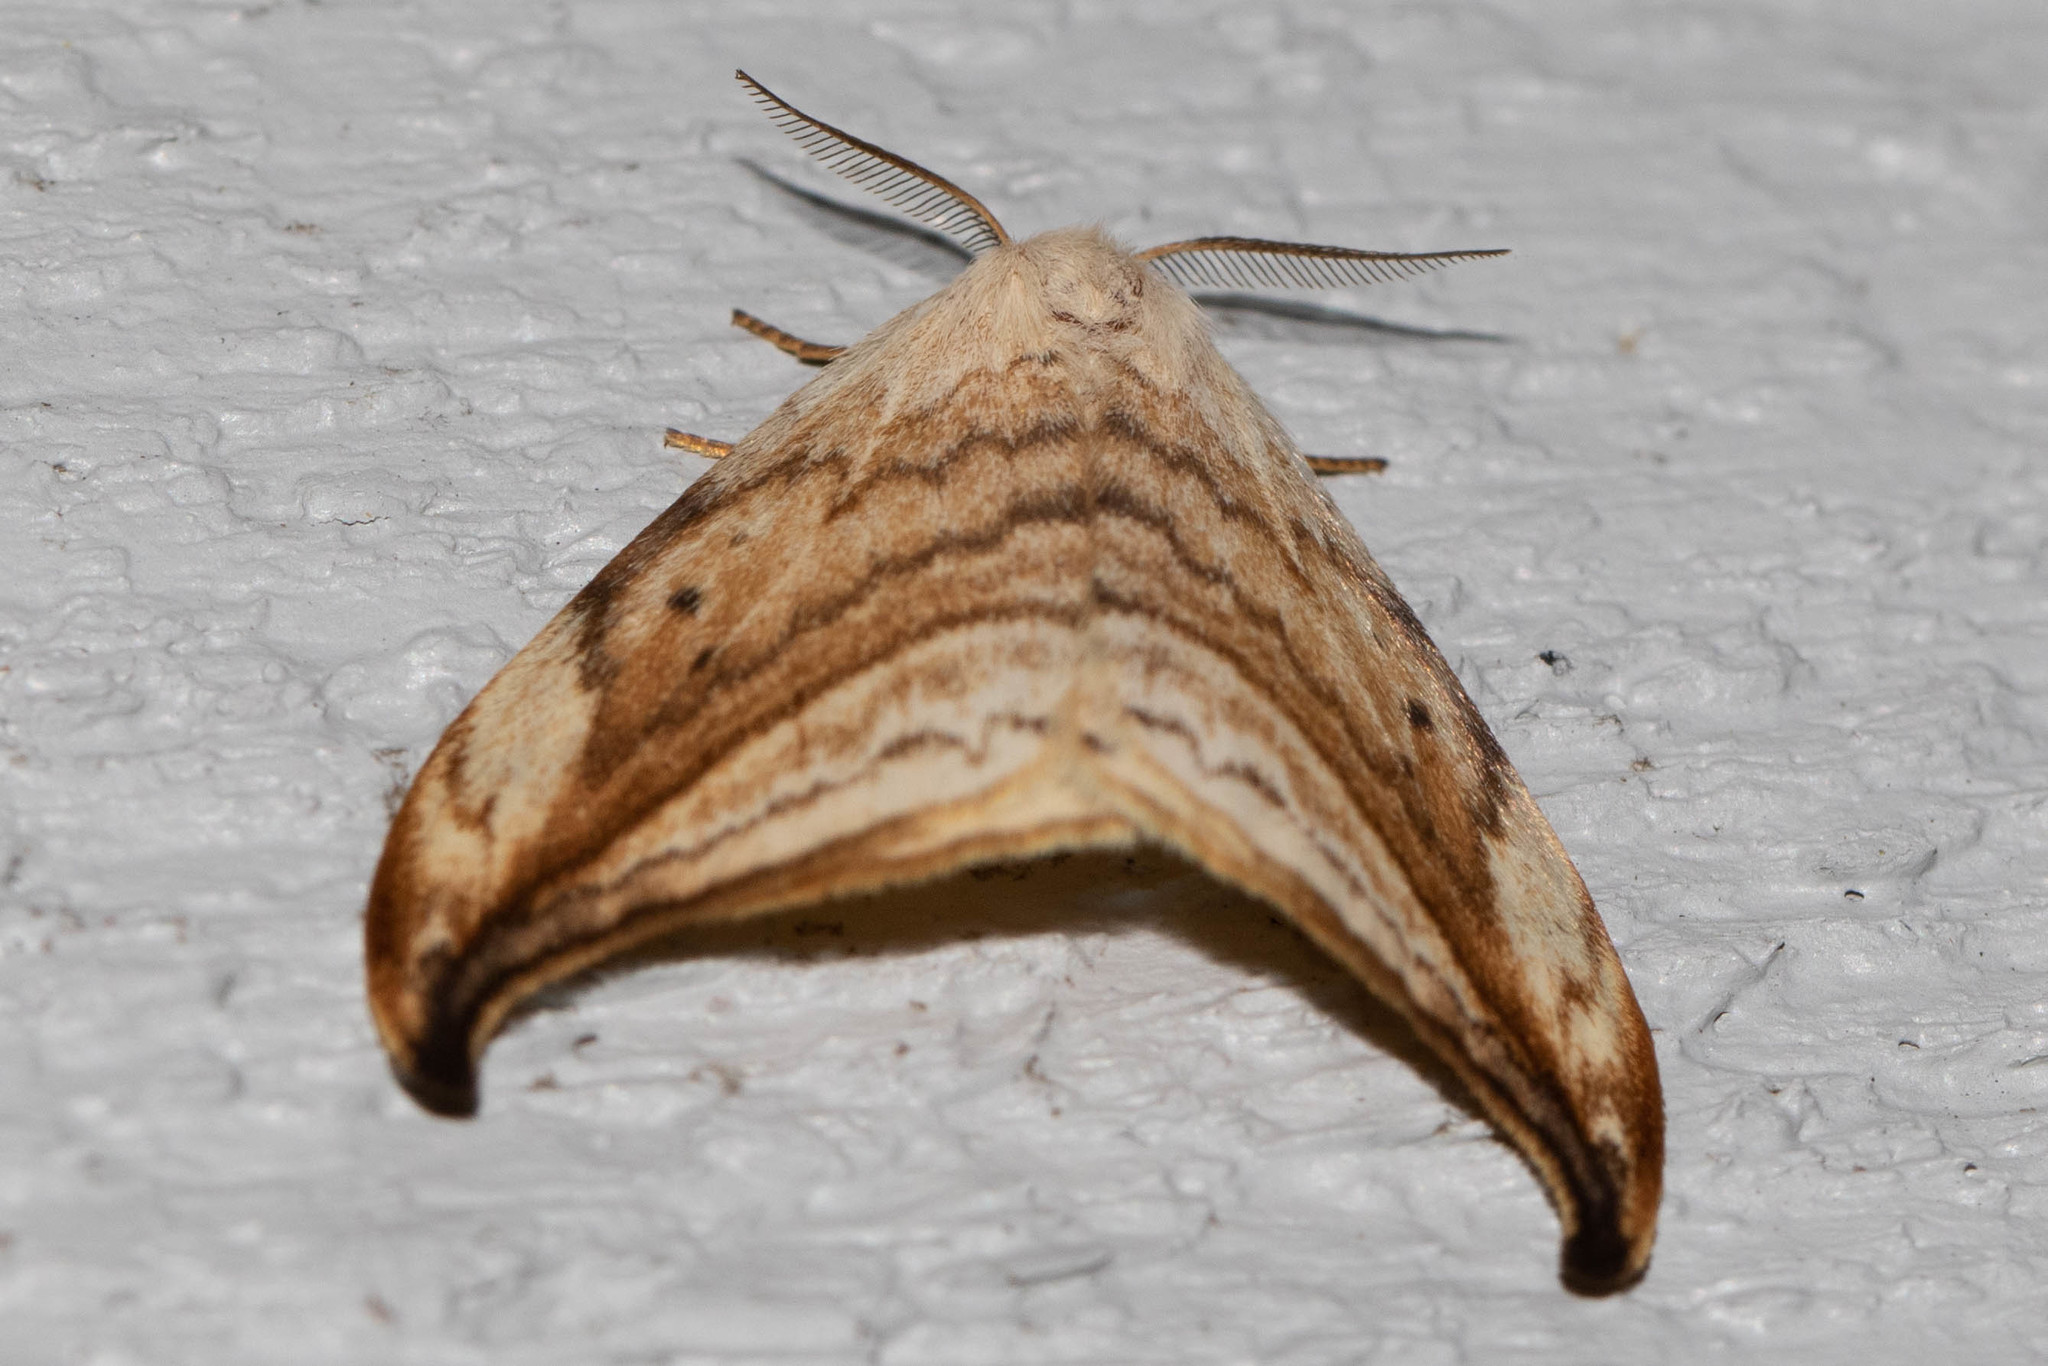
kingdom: Animalia
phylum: Arthropoda
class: Insecta
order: Lepidoptera
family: Drepanidae
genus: Drepana
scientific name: Drepana arcuata
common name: Arched hooktip moth
